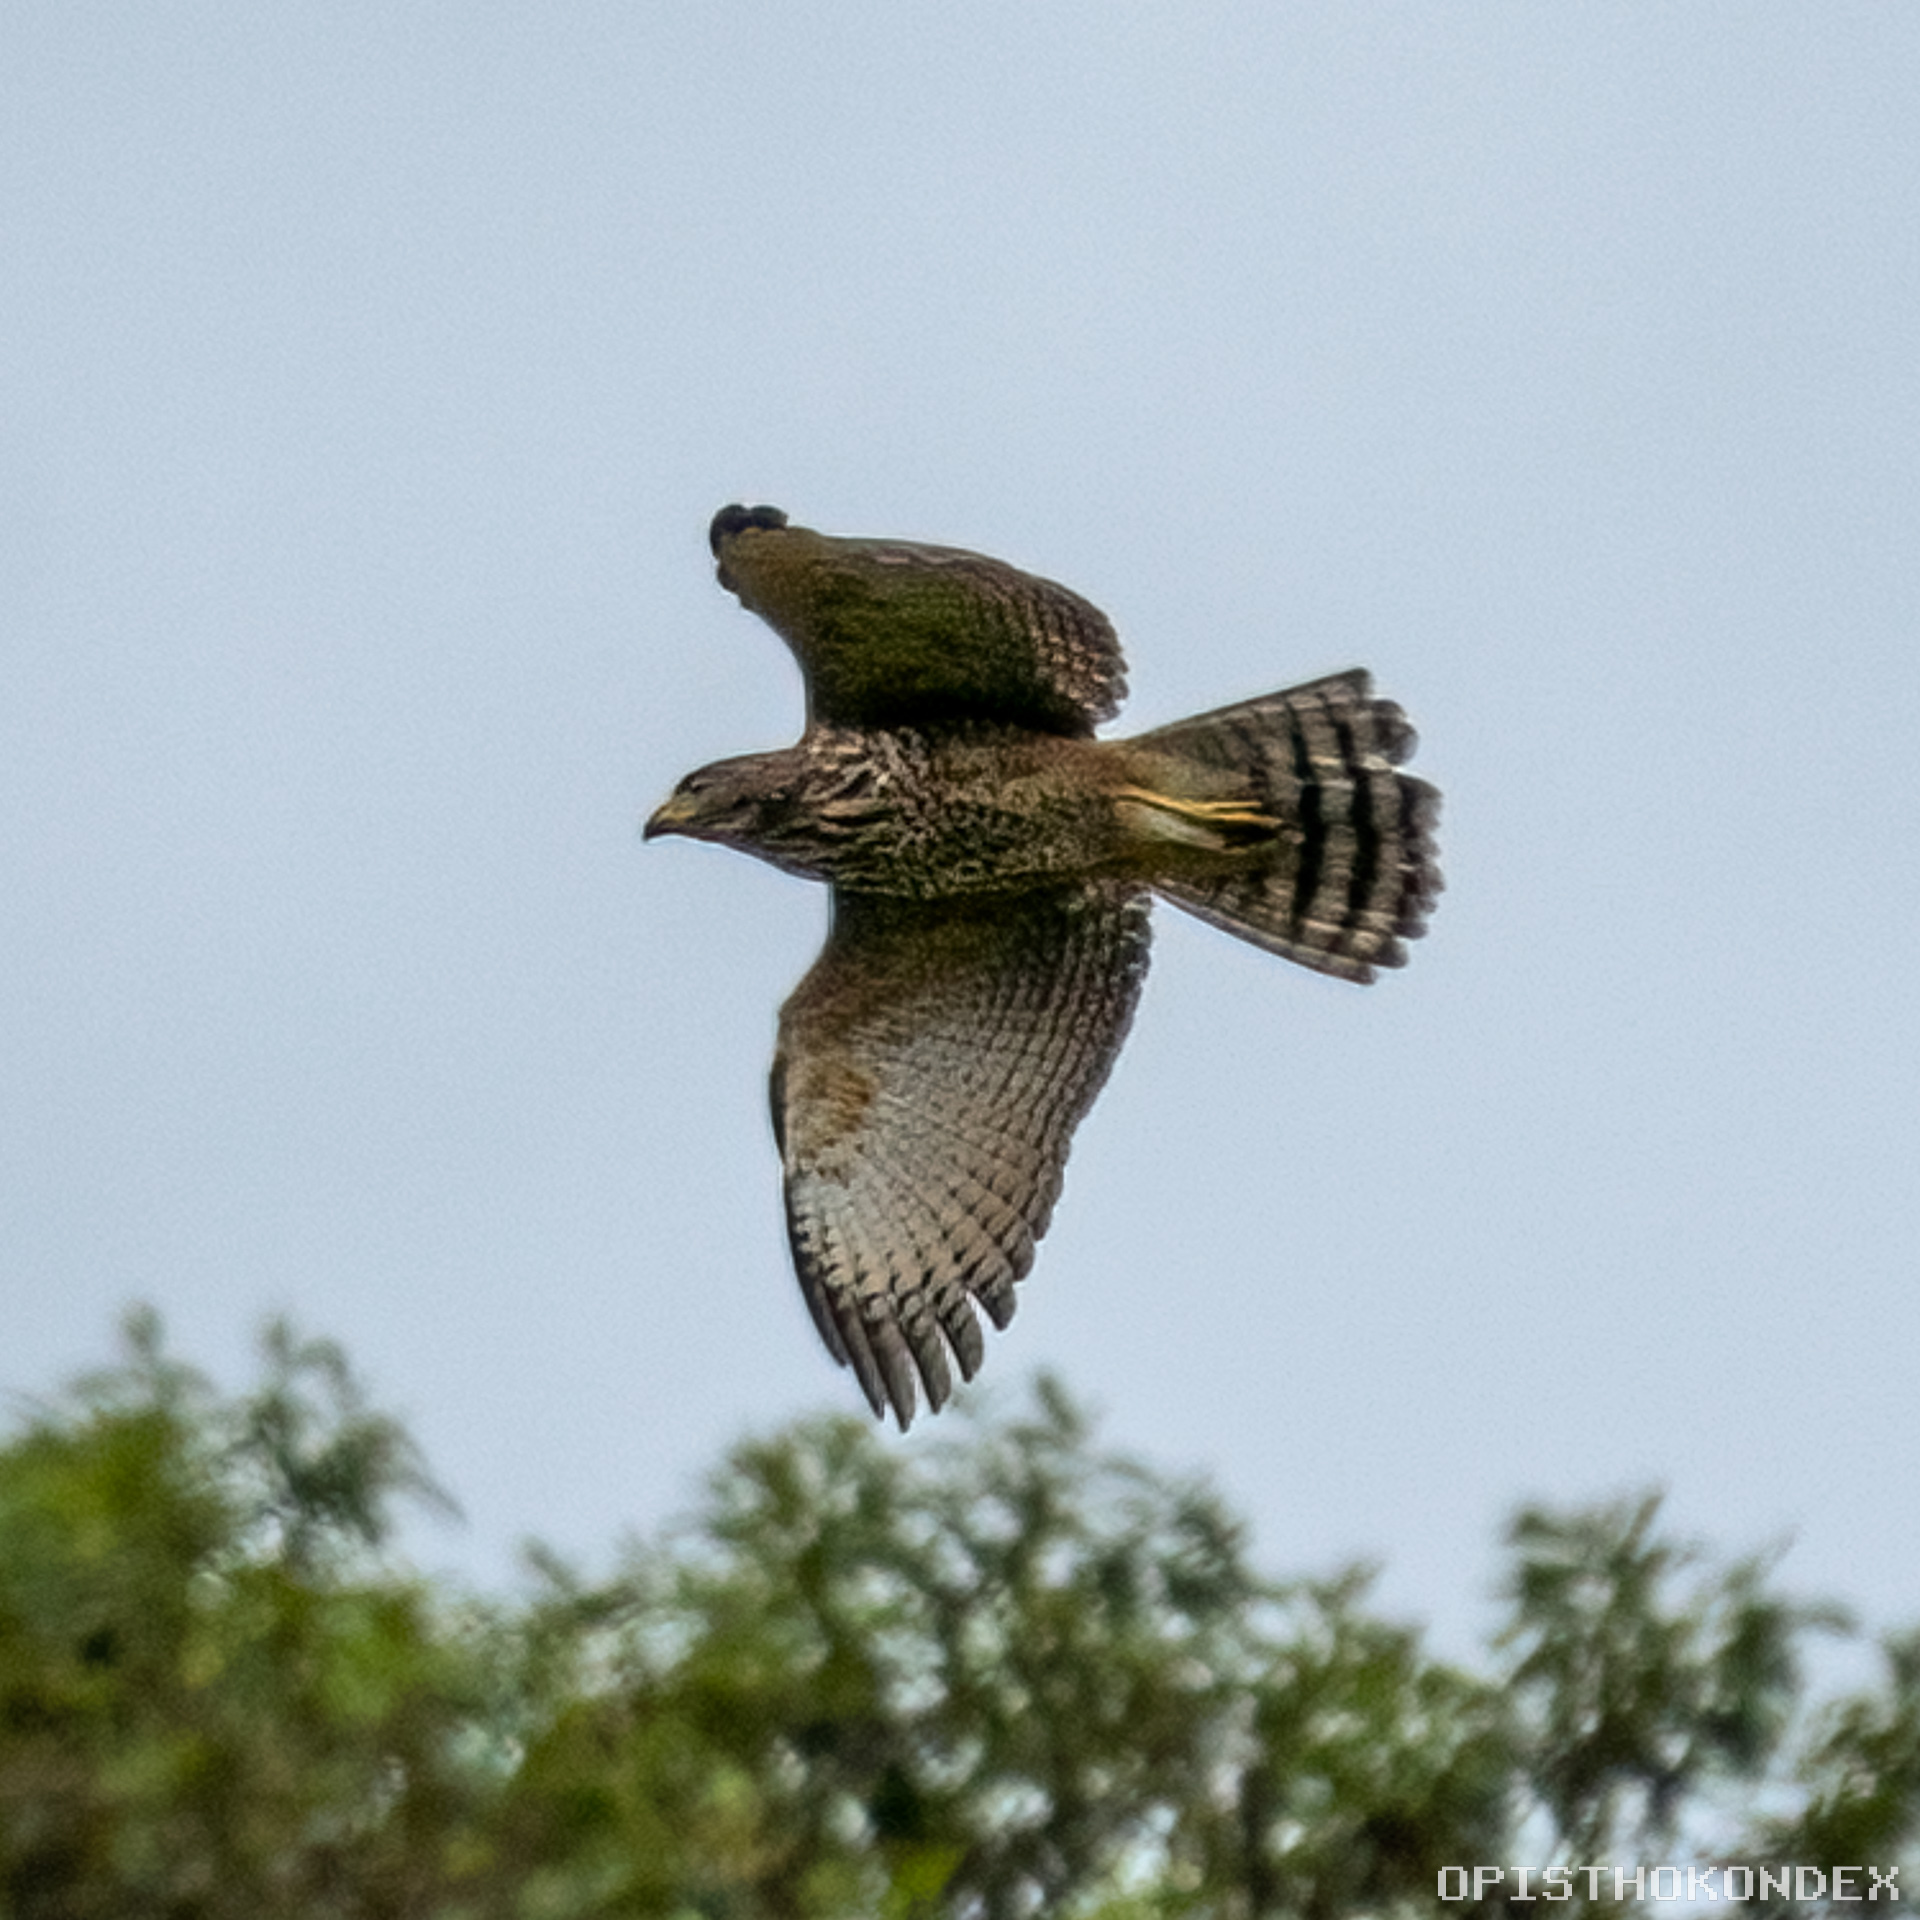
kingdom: Animalia
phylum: Chordata
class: Aves
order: Accipitriformes
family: Accipitridae
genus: Rupornis
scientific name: Rupornis magnirostris
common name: Roadside hawk
